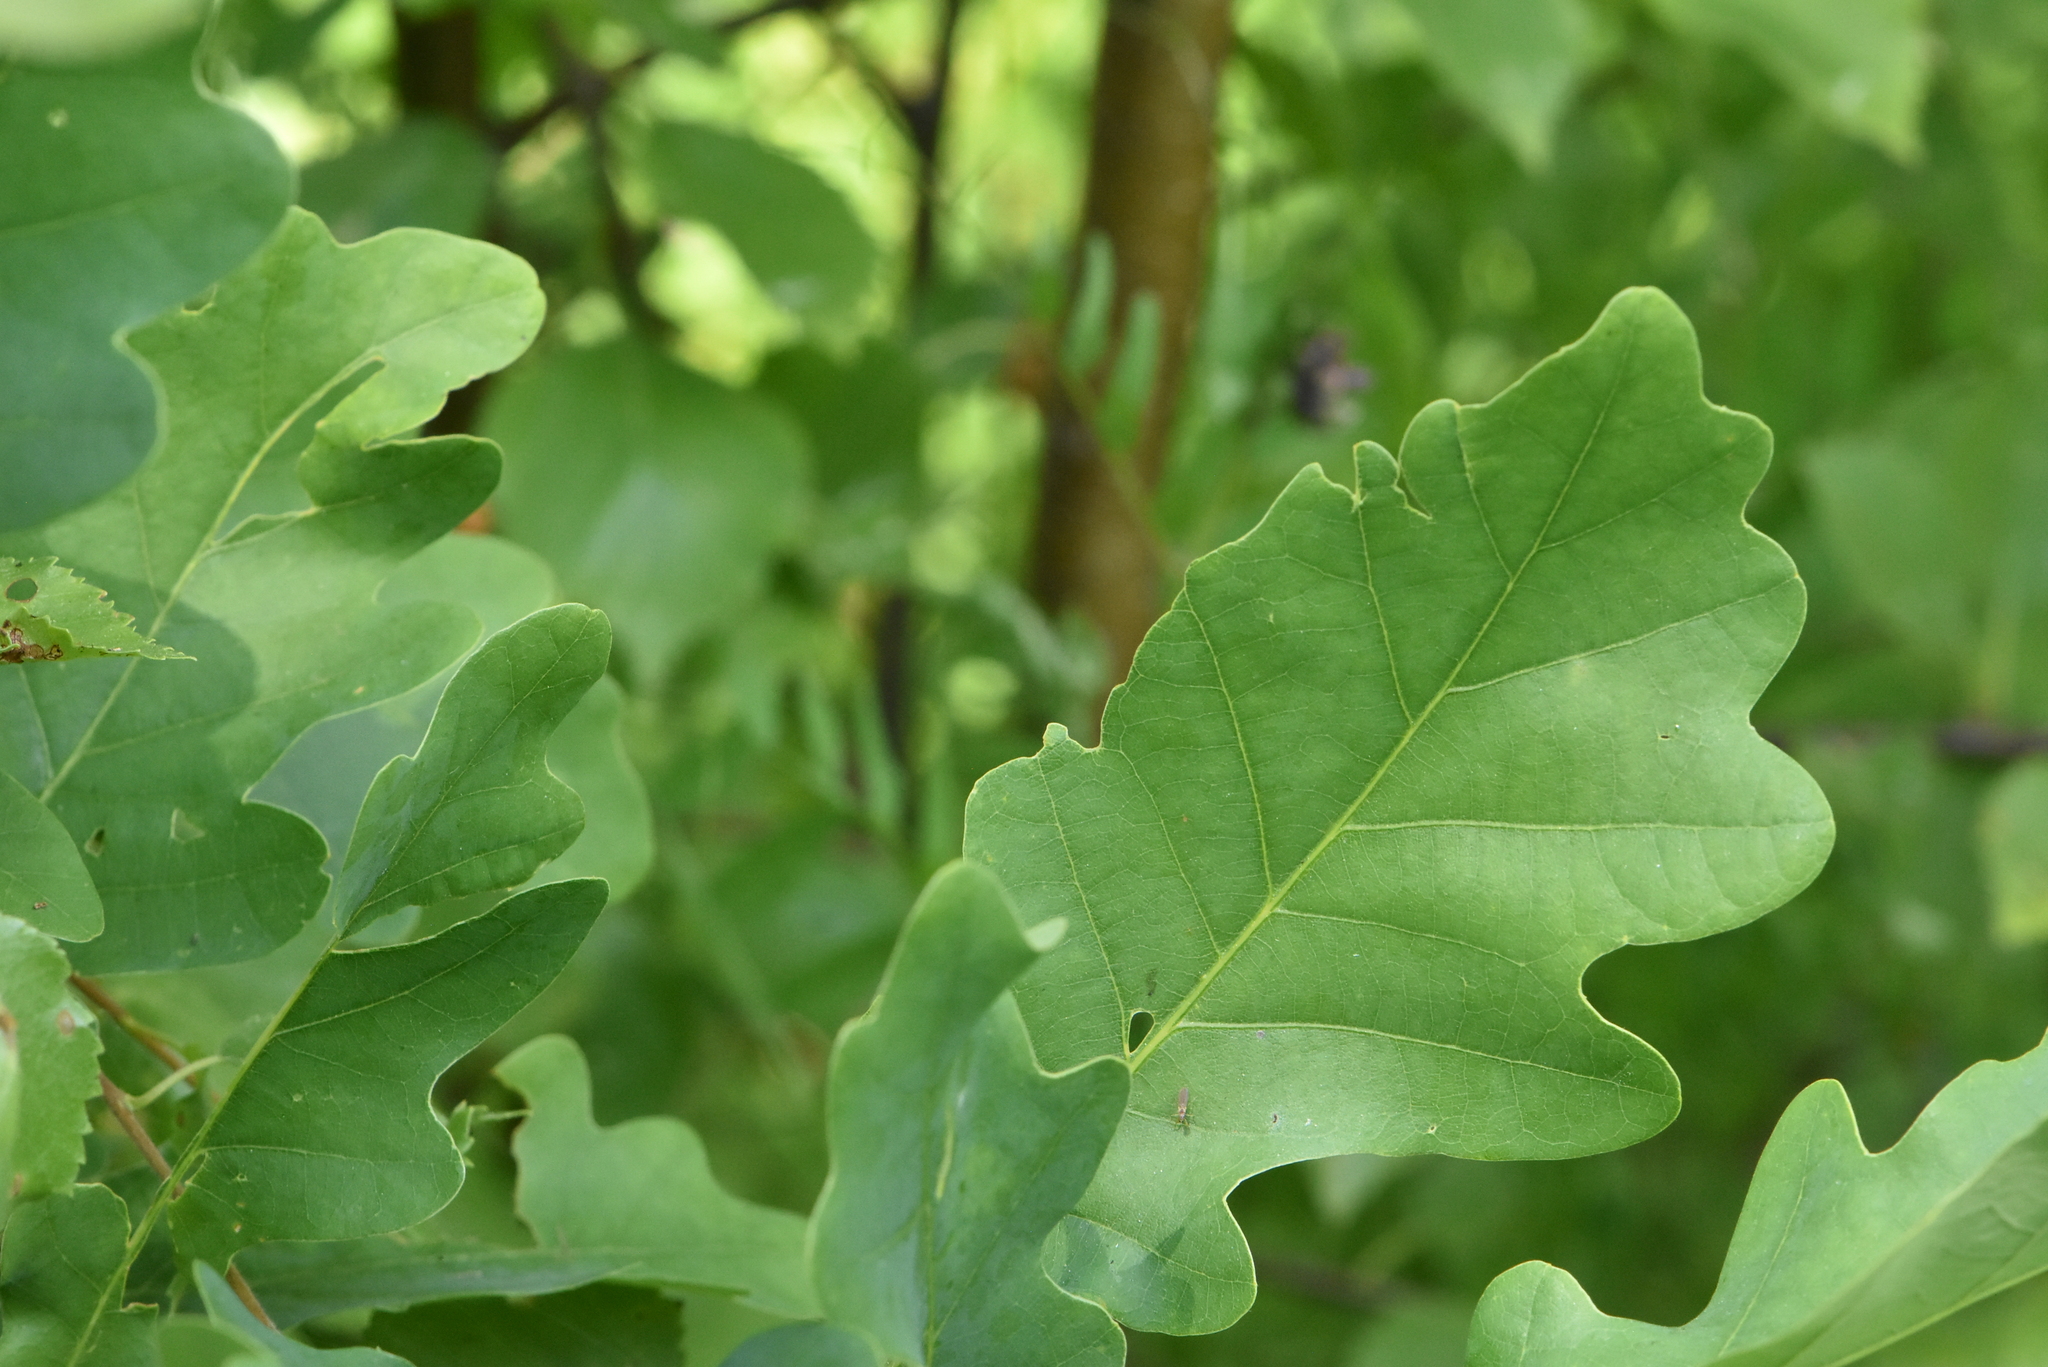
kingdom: Plantae
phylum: Tracheophyta
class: Magnoliopsida
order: Fagales
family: Fagaceae
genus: Quercus
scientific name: Quercus robur
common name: Pedunculate oak
